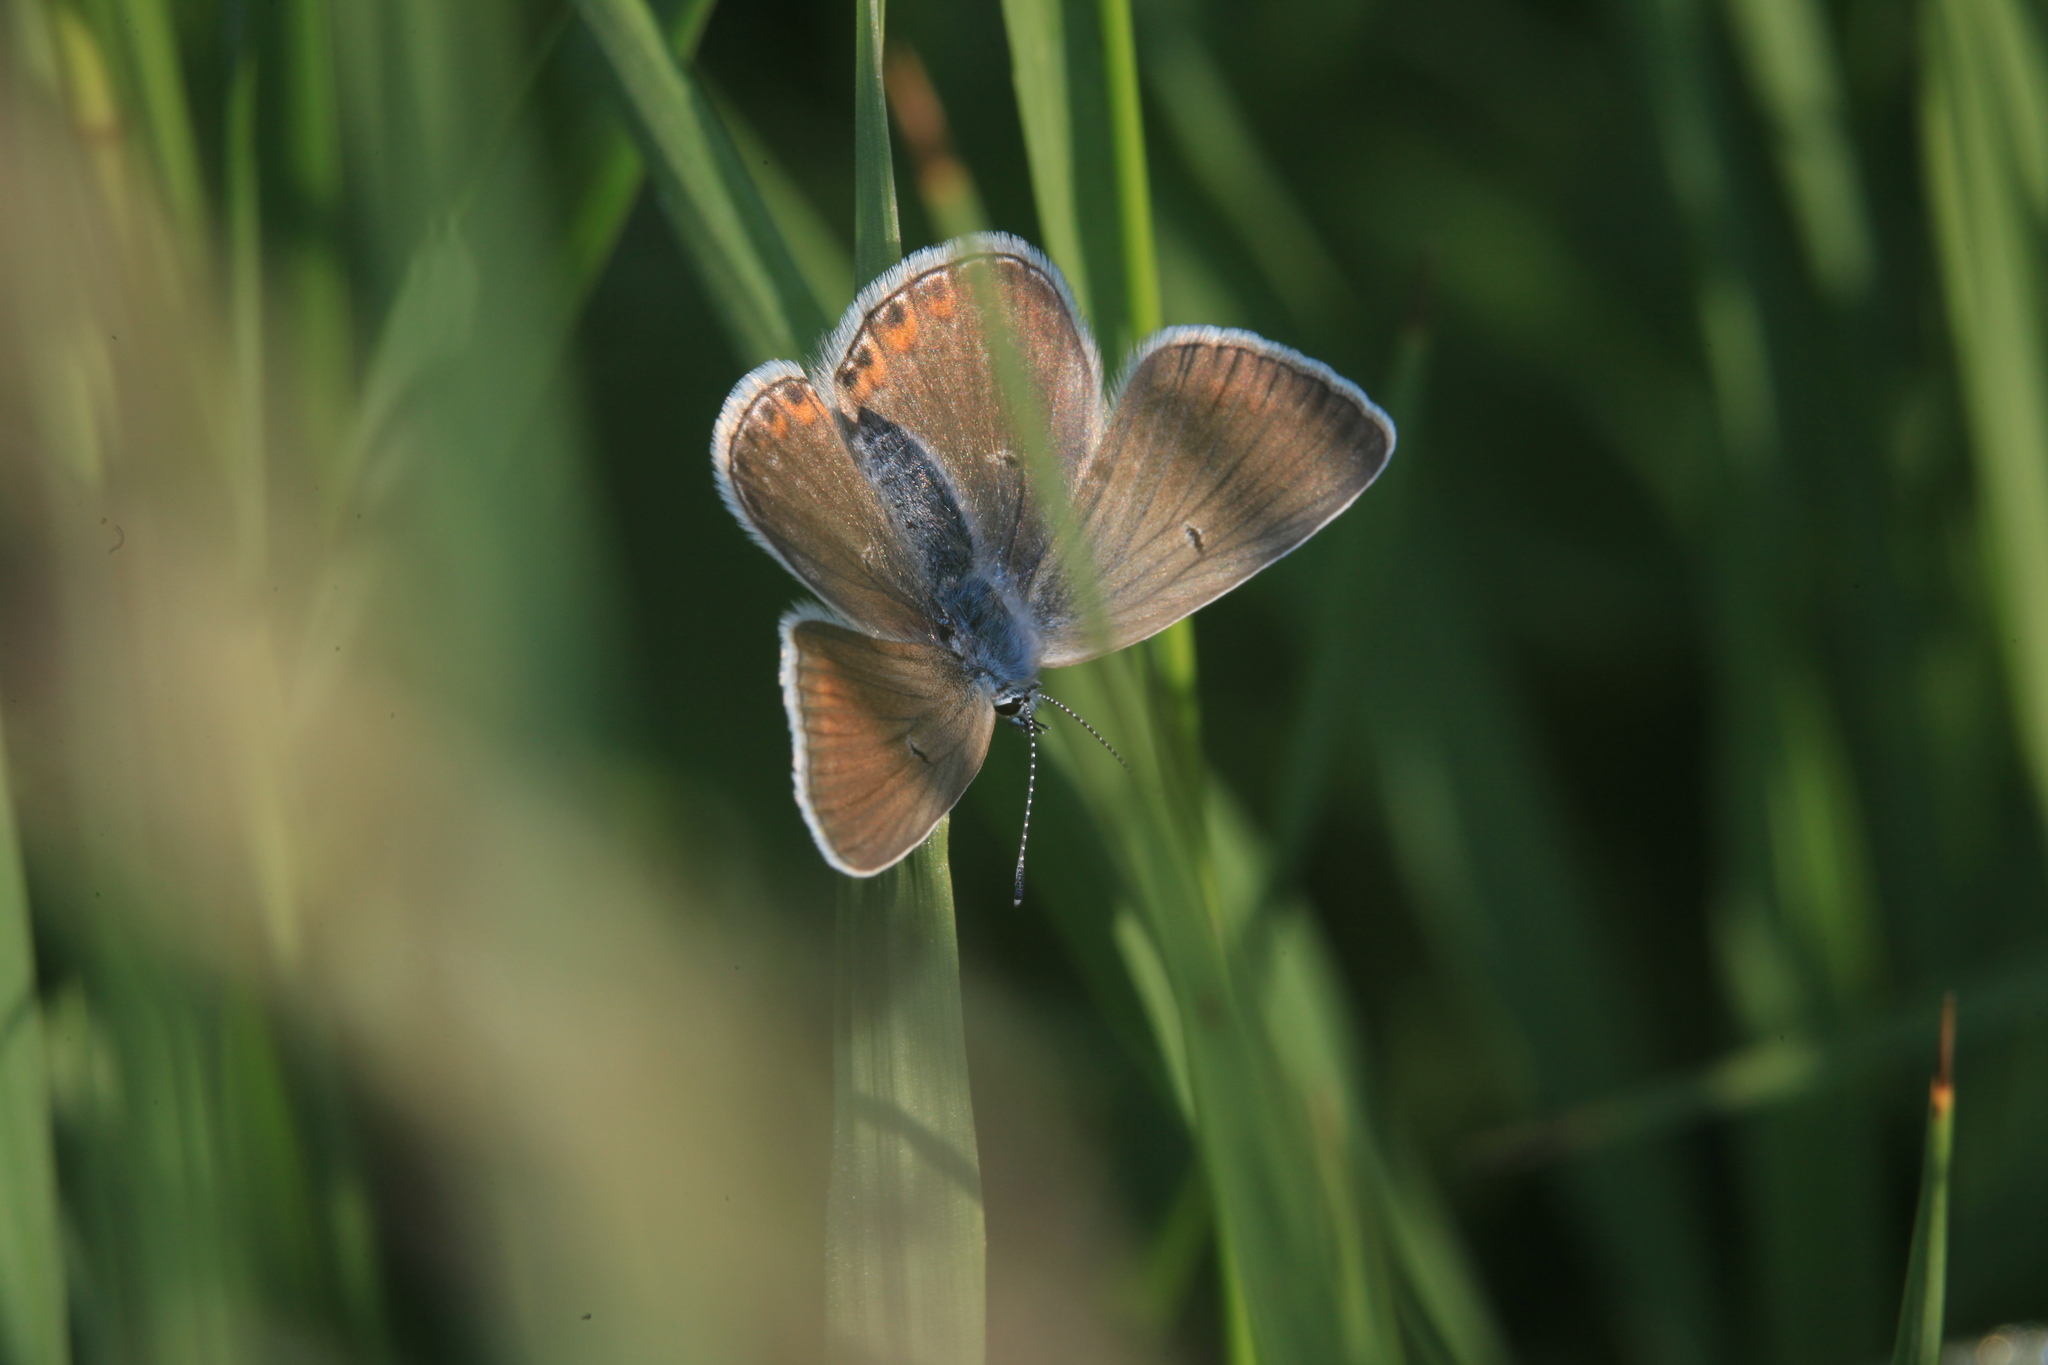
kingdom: Animalia
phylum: Arthropoda
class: Insecta
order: Lepidoptera
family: Lycaenidae
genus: Plebejus
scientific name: Plebejus amanda
